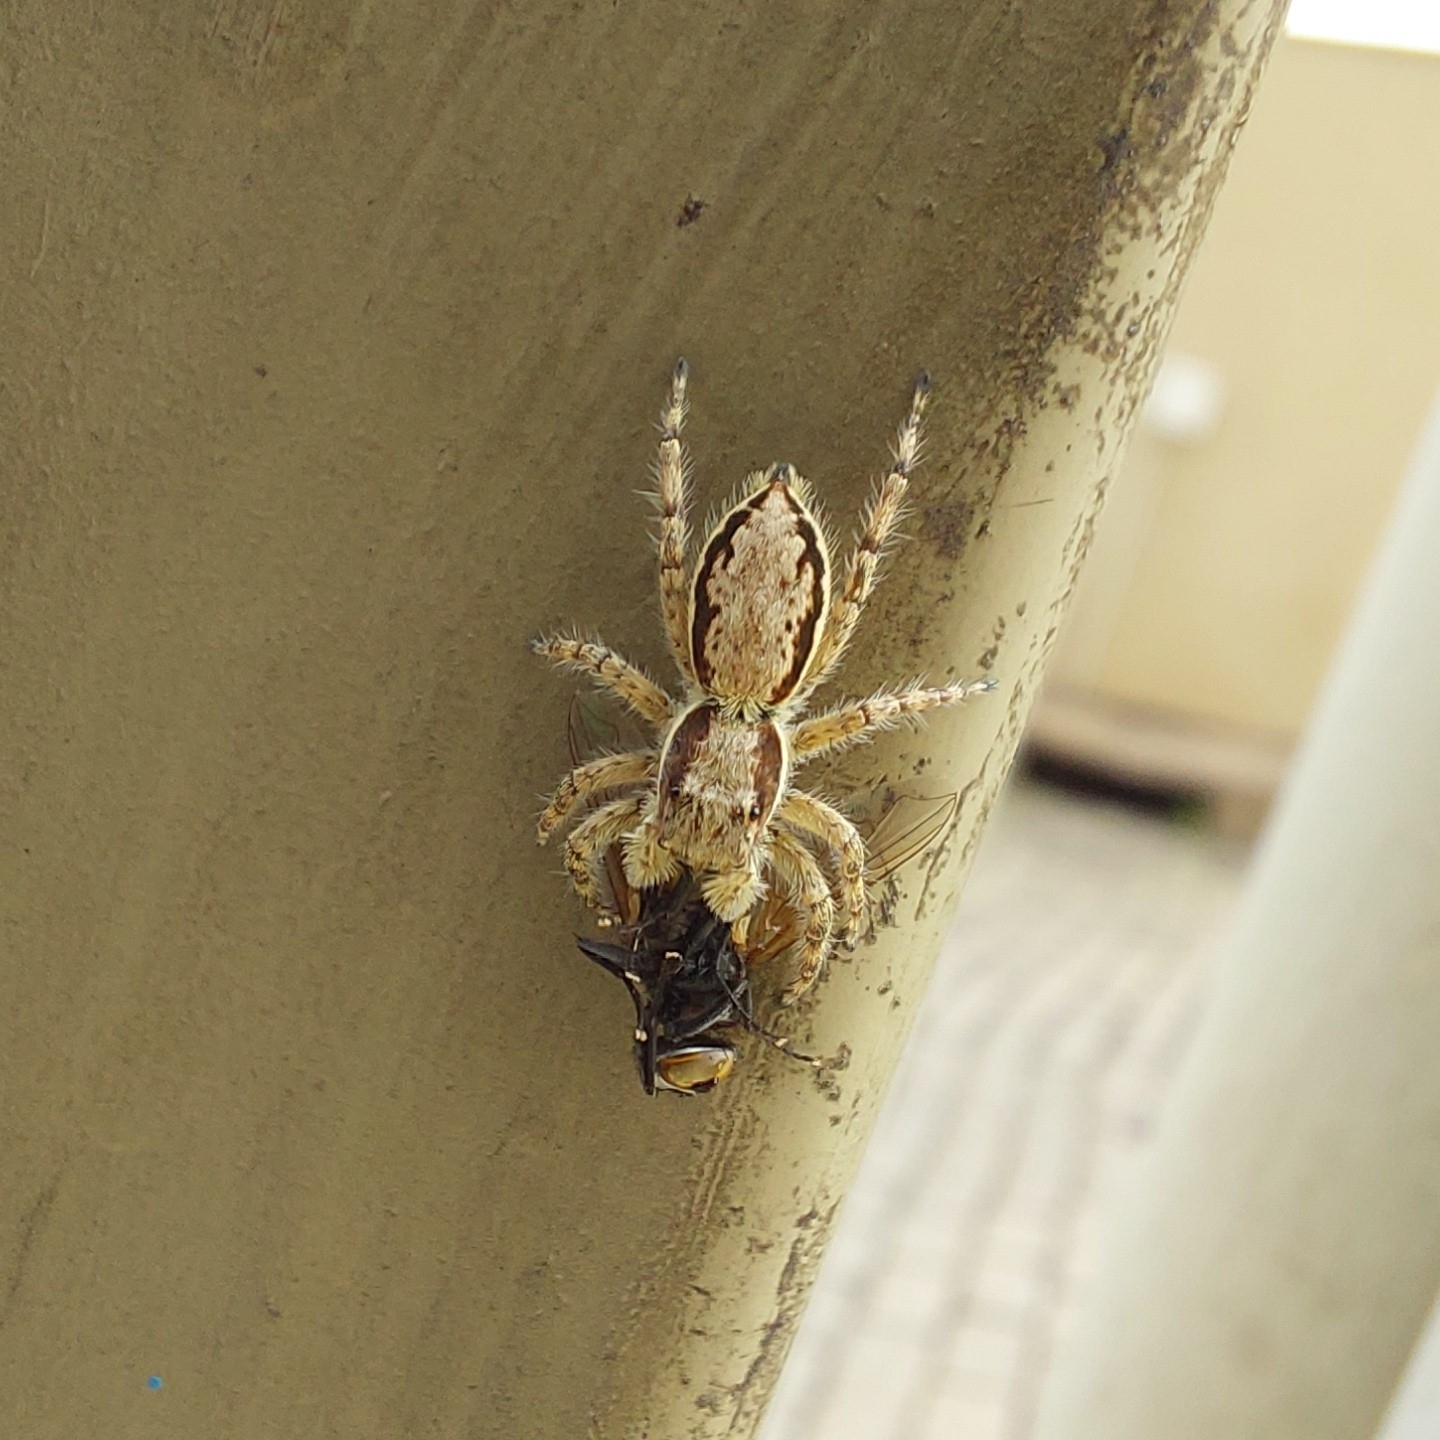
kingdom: Animalia
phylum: Arthropoda
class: Arachnida
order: Araneae
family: Salticidae
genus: Menemerus
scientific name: Menemerus bivittatus
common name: Gray wall jumper
